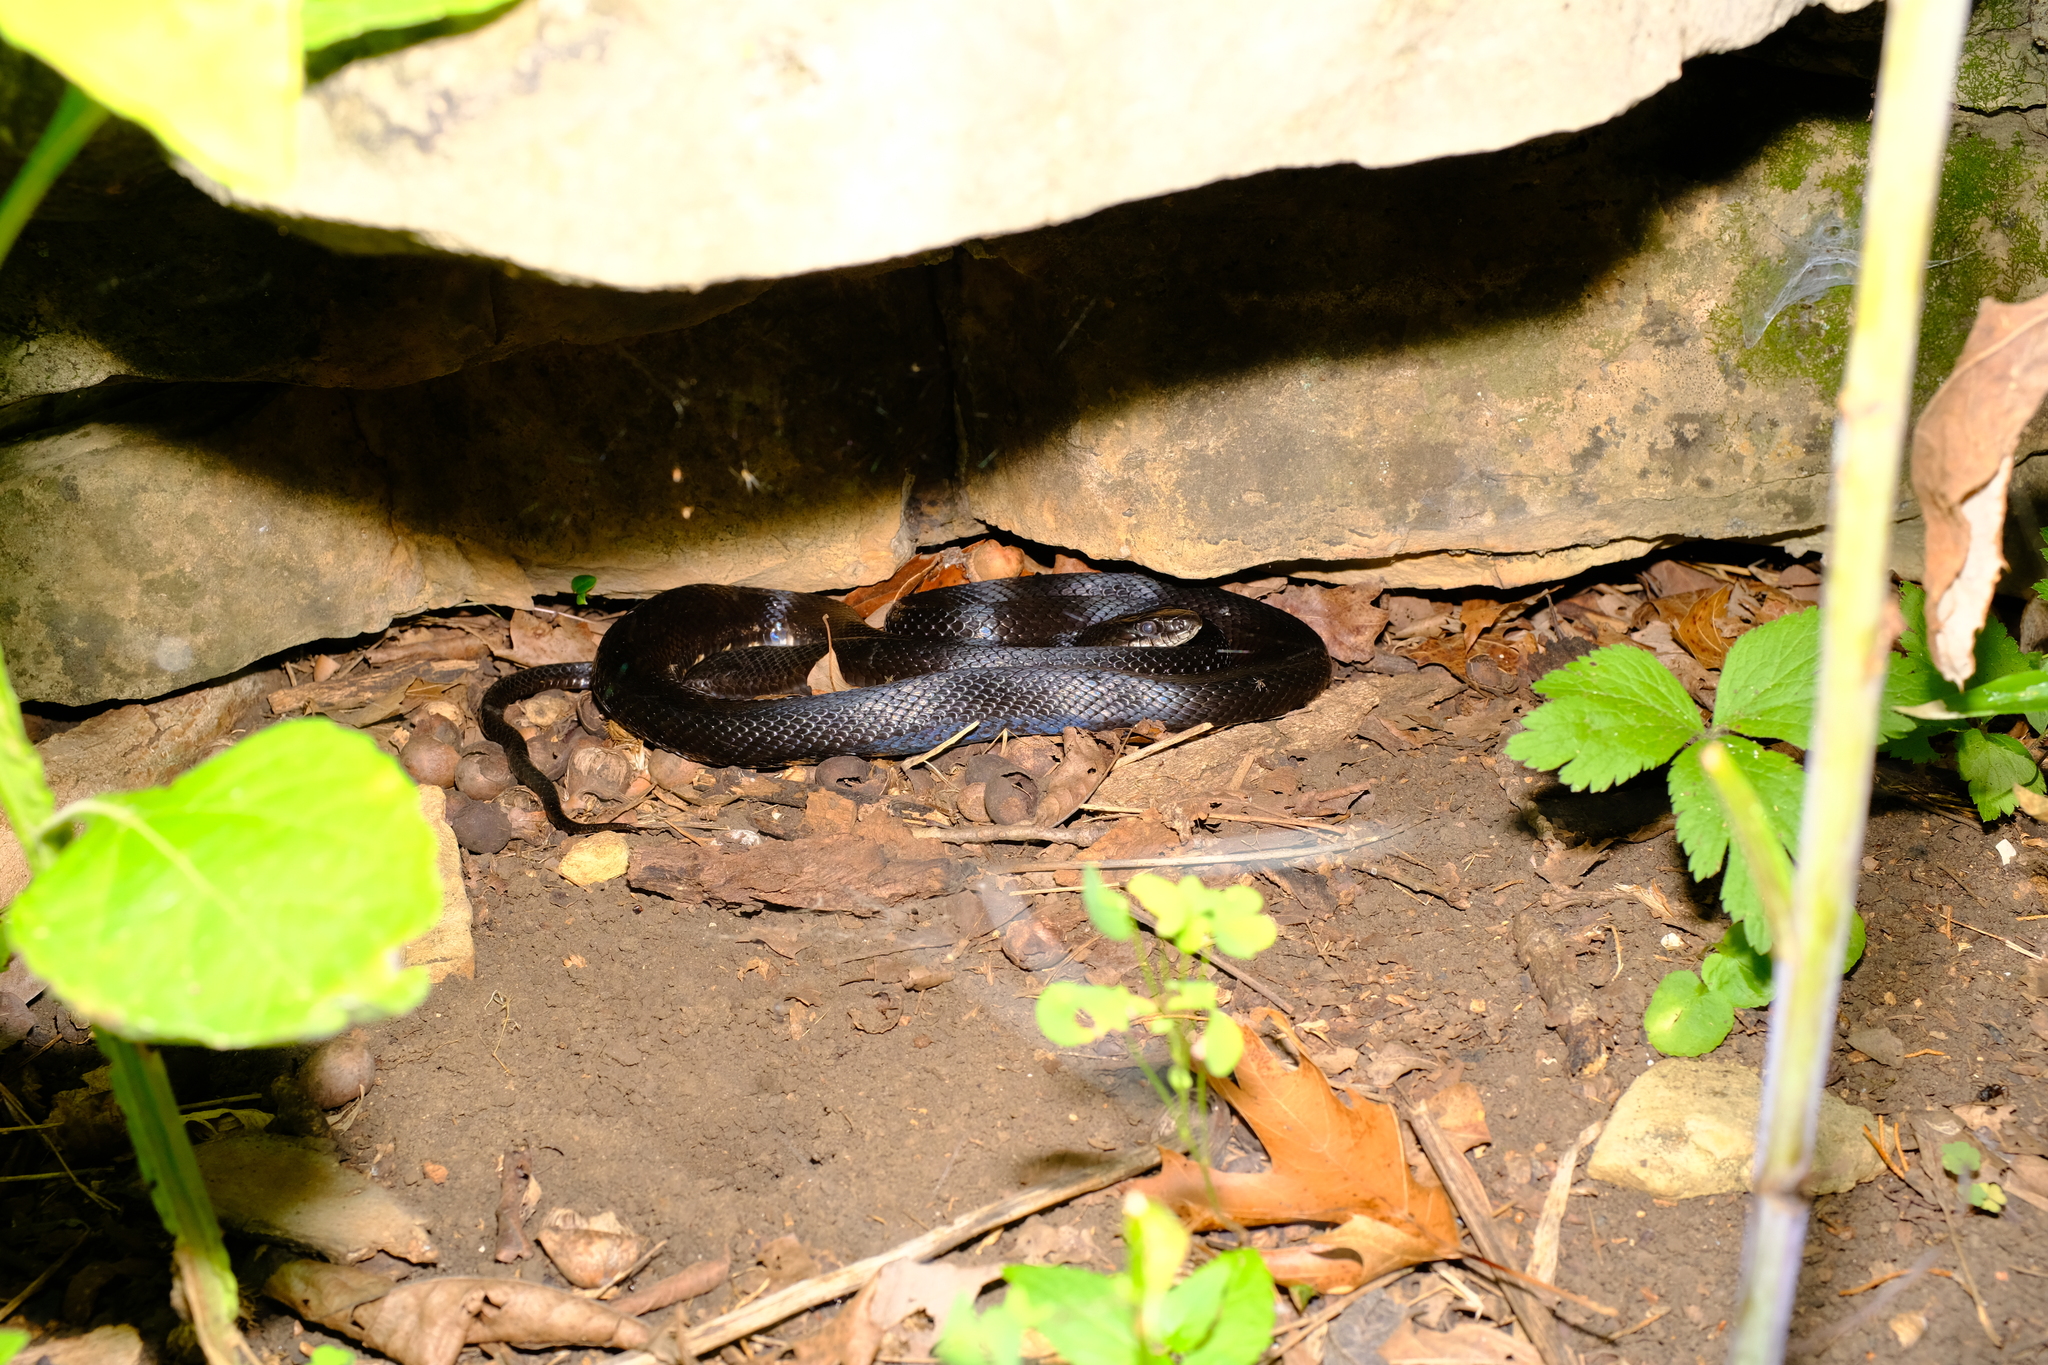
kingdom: Animalia
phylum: Chordata
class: Squamata
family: Colubridae
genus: Pantherophis
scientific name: Pantherophis obsoletus
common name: Black rat snake
